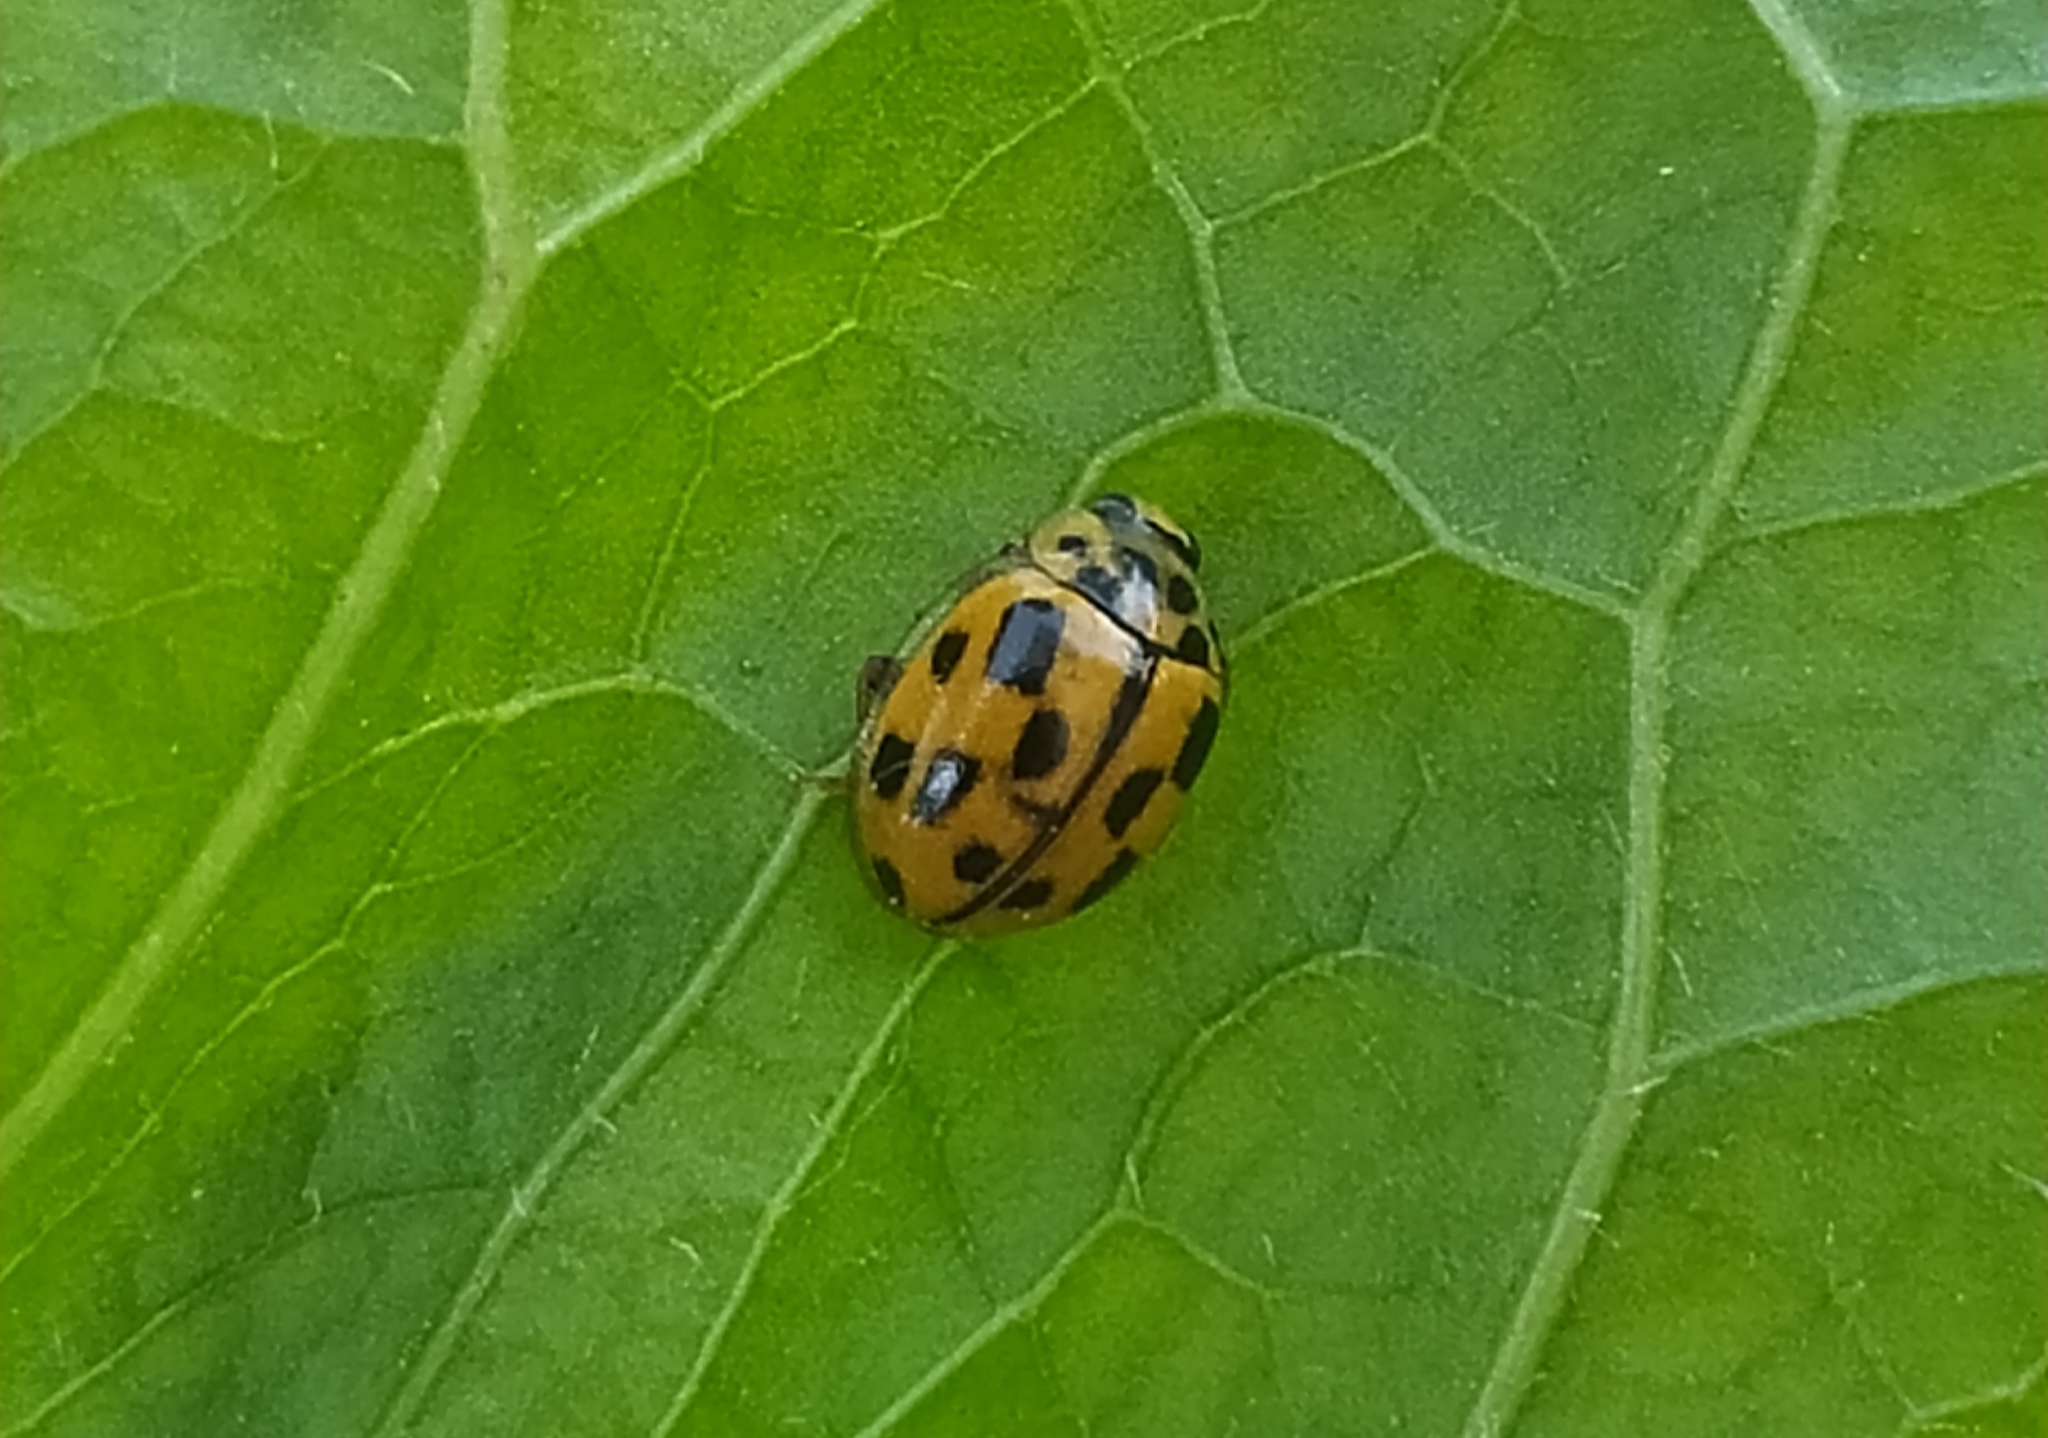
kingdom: Animalia
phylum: Arthropoda
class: Insecta
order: Coleoptera
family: Coccinellidae
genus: Propylaea
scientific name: Propylaea quatuordecimpunctata
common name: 14-spotted ladybird beetle
